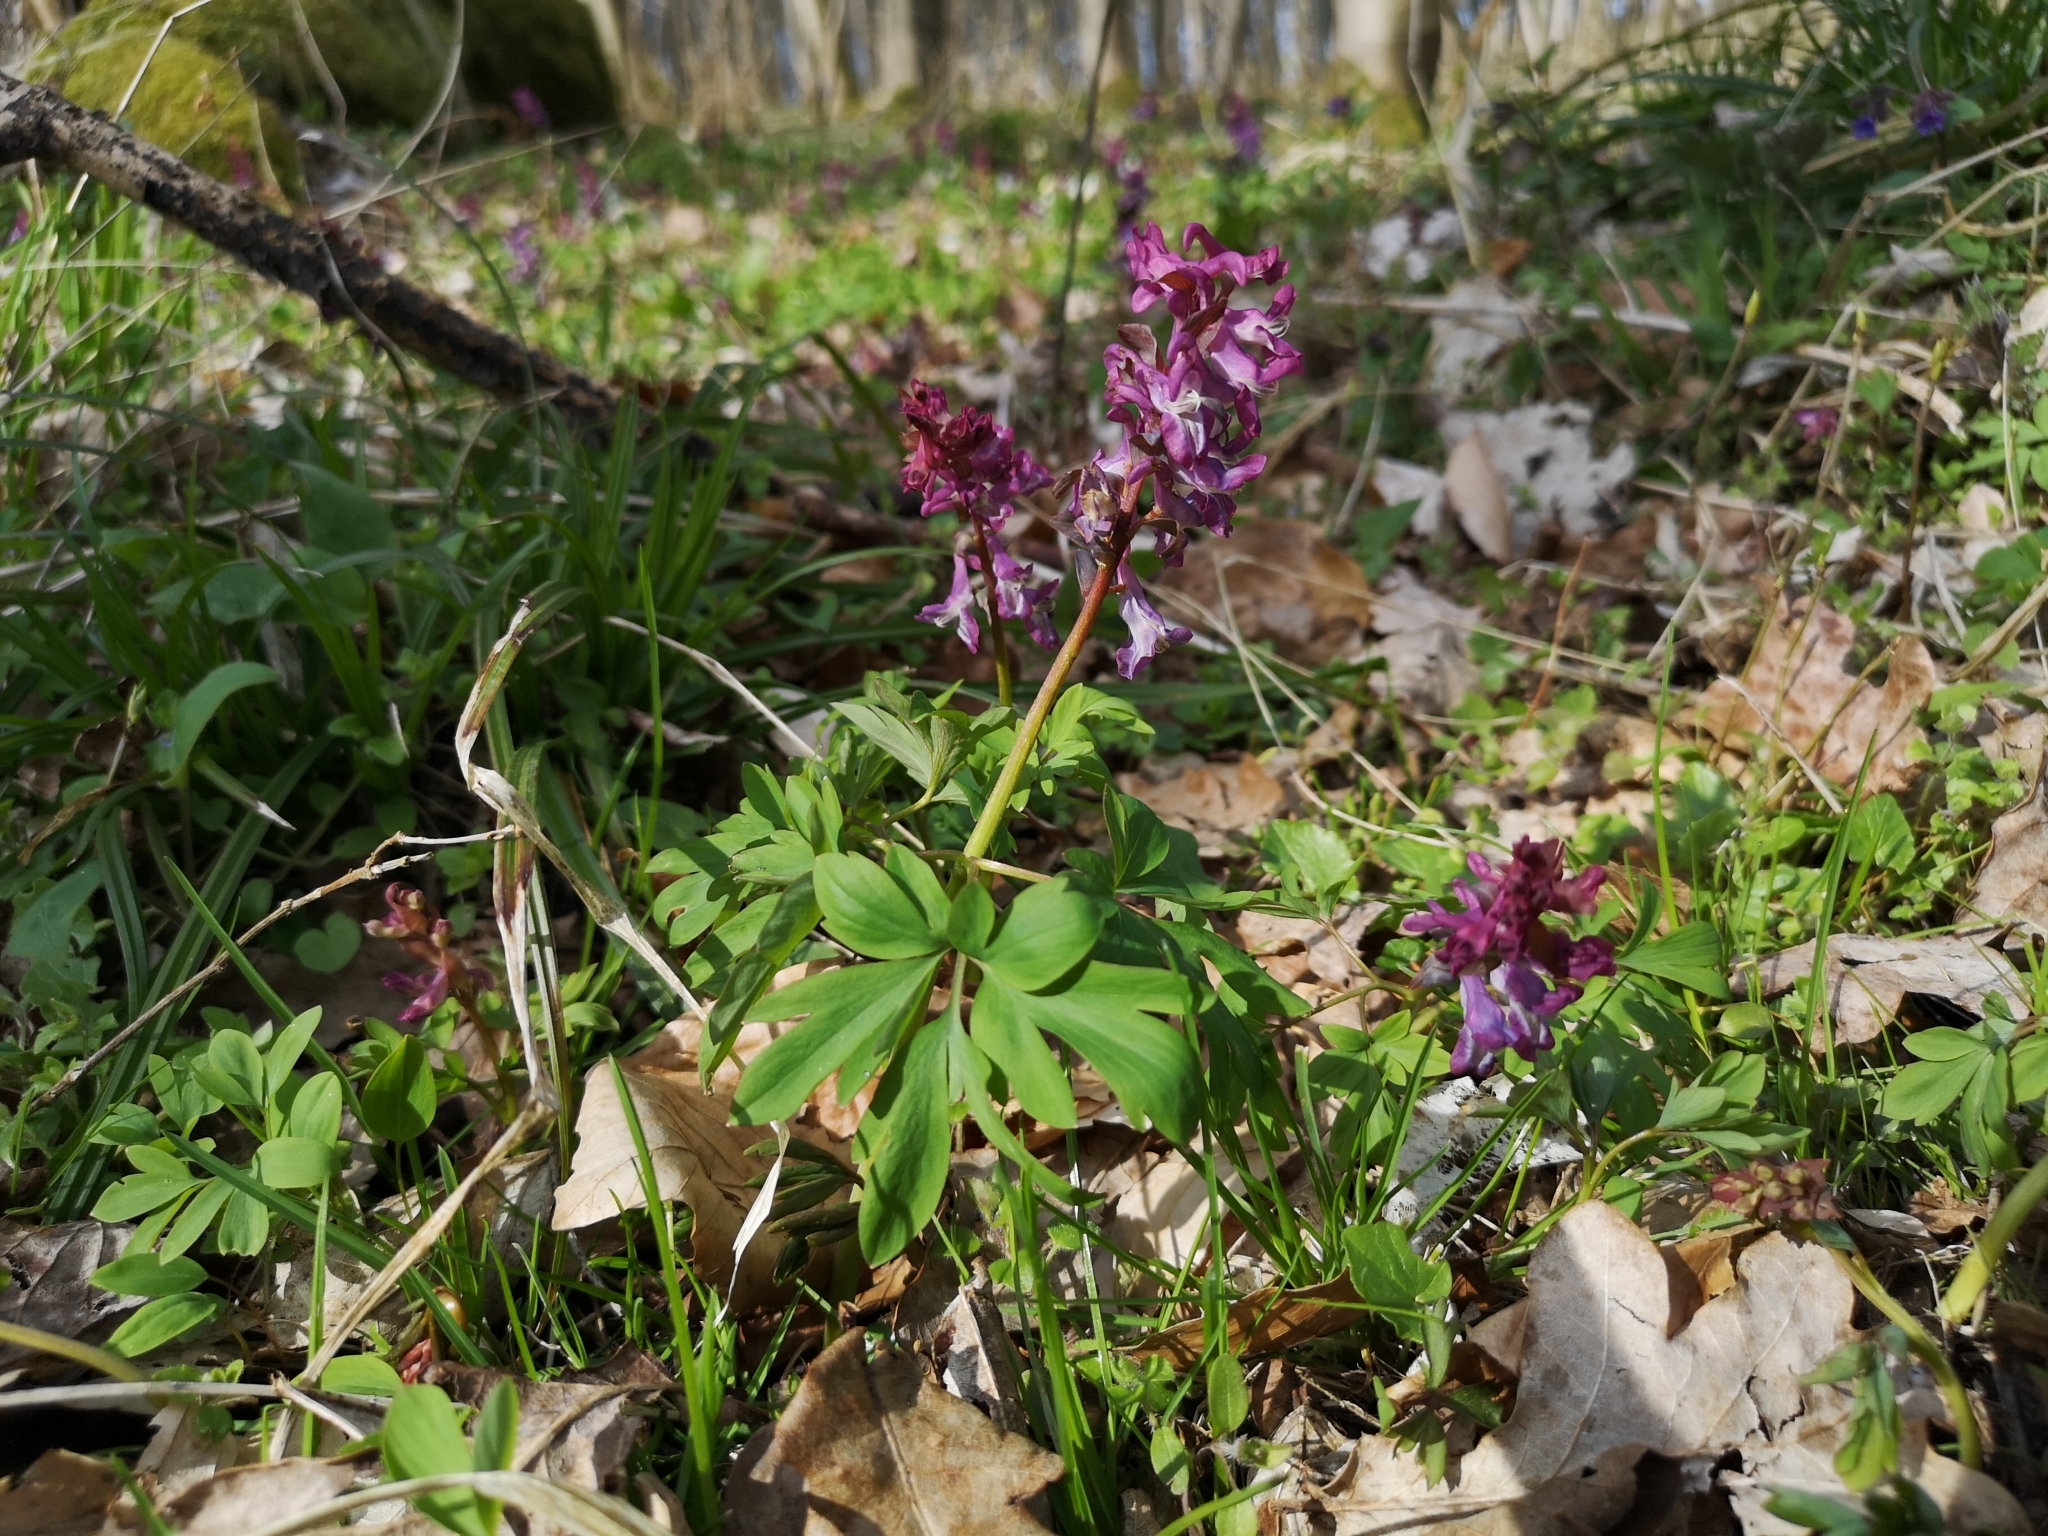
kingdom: Plantae
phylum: Tracheophyta
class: Magnoliopsida
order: Ranunculales
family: Papaveraceae
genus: Corydalis
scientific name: Corydalis cava
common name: Hollowroot
